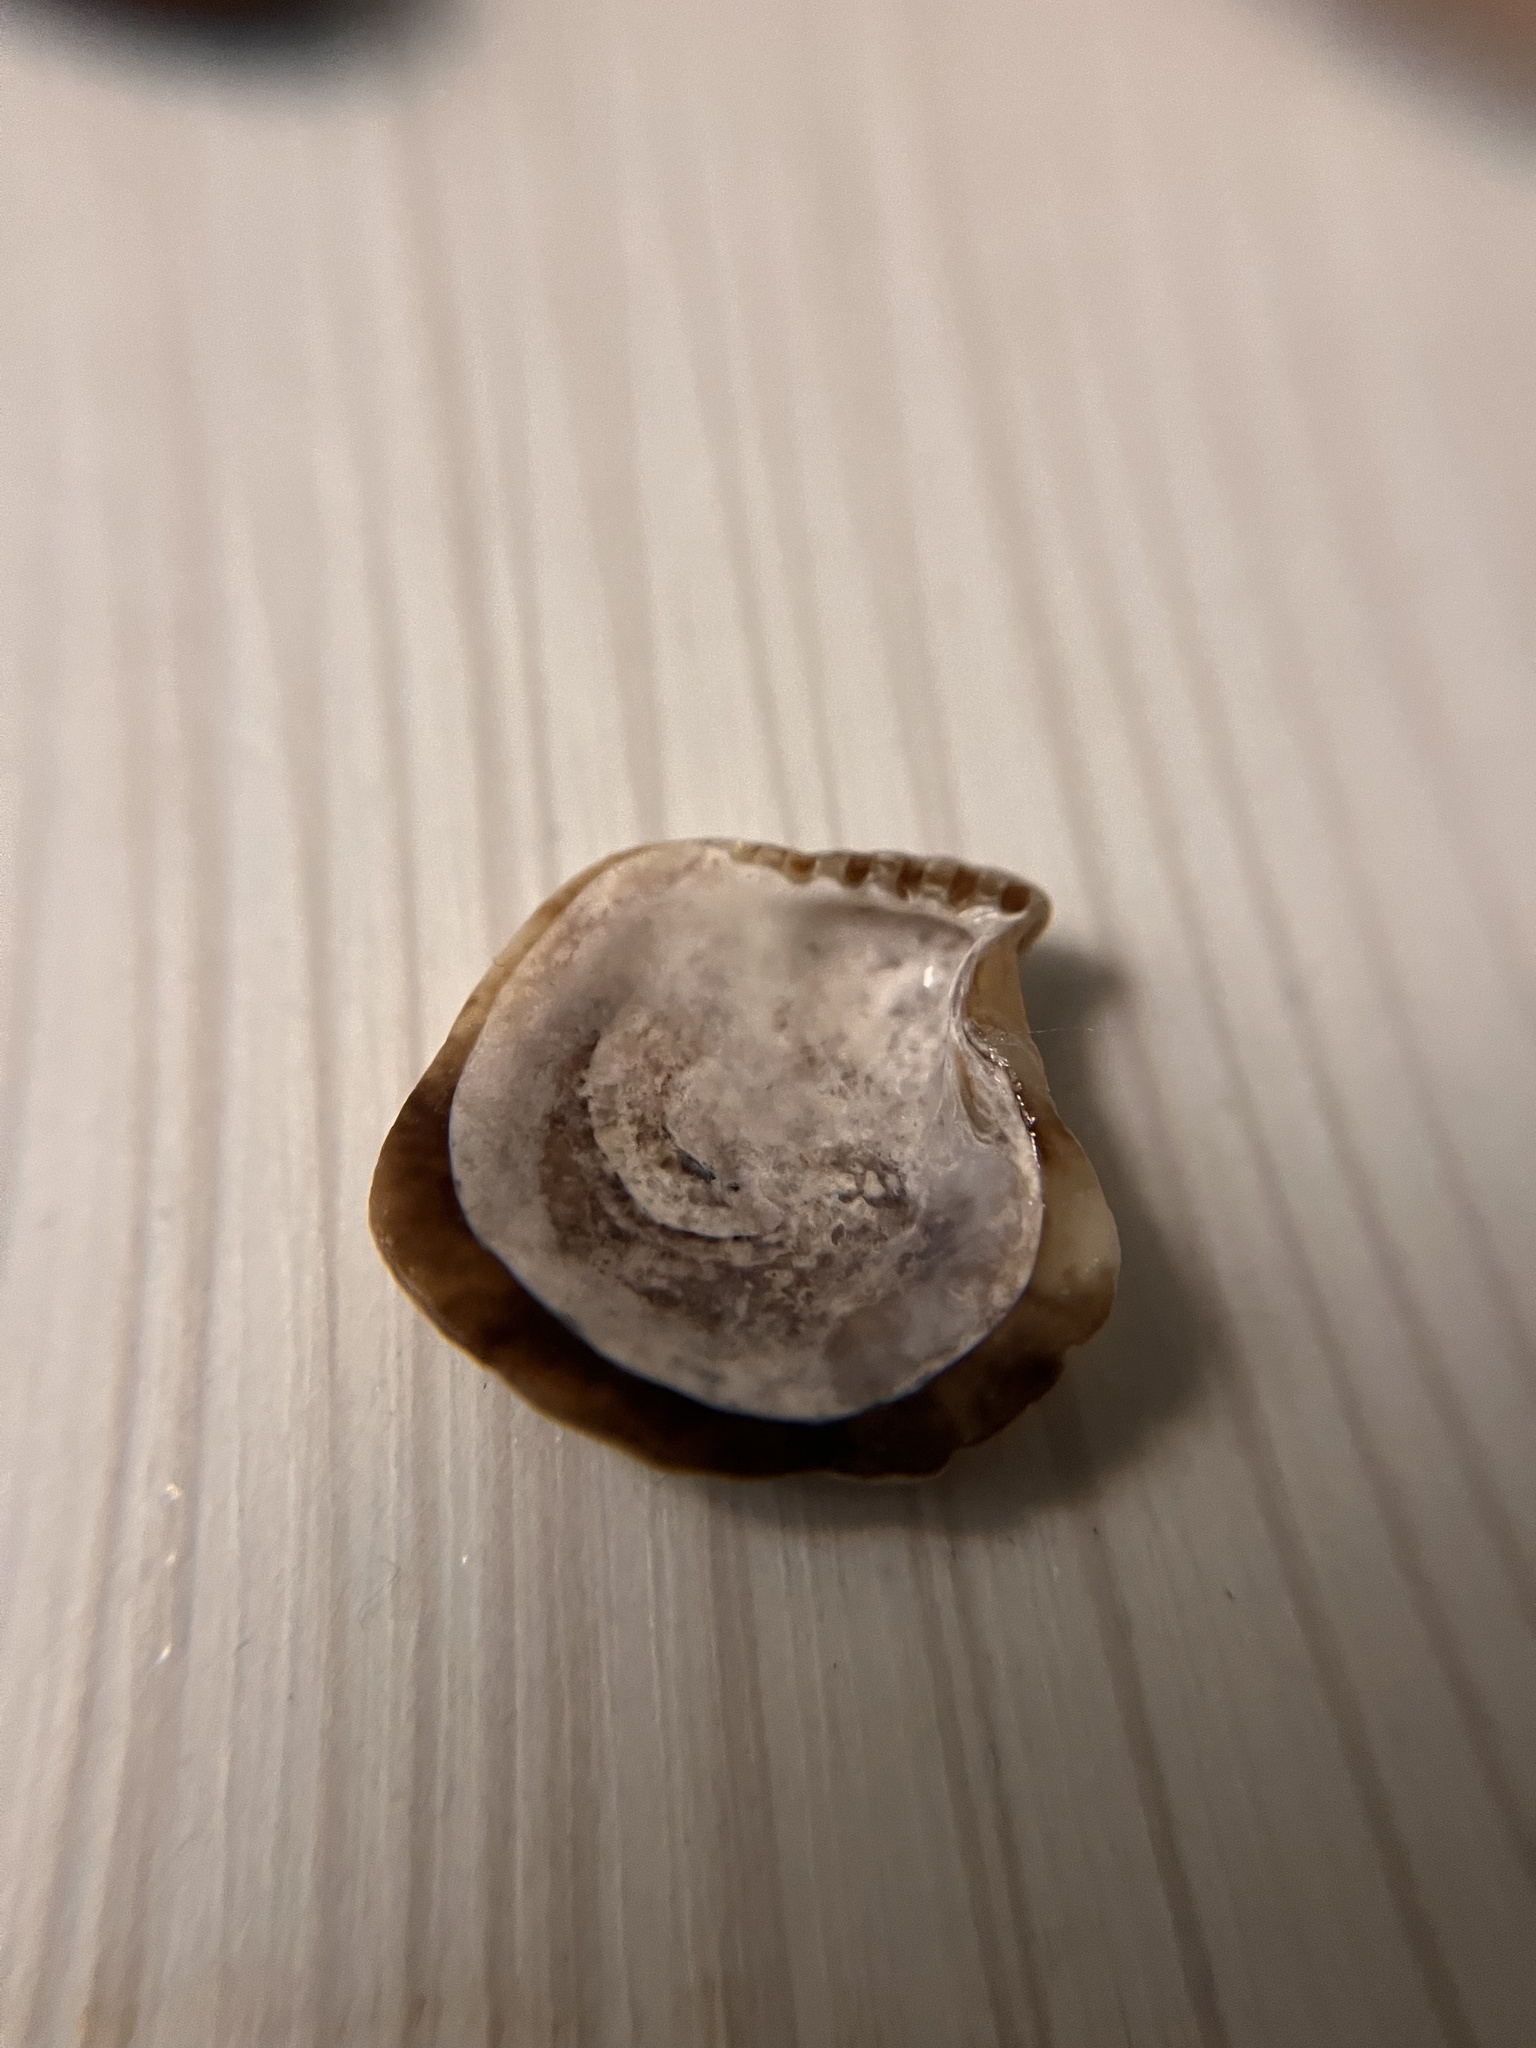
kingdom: Animalia
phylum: Mollusca
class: Bivalvia
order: Ostreida
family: Isognomonidae
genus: Isognomon
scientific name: Isognomon perna
